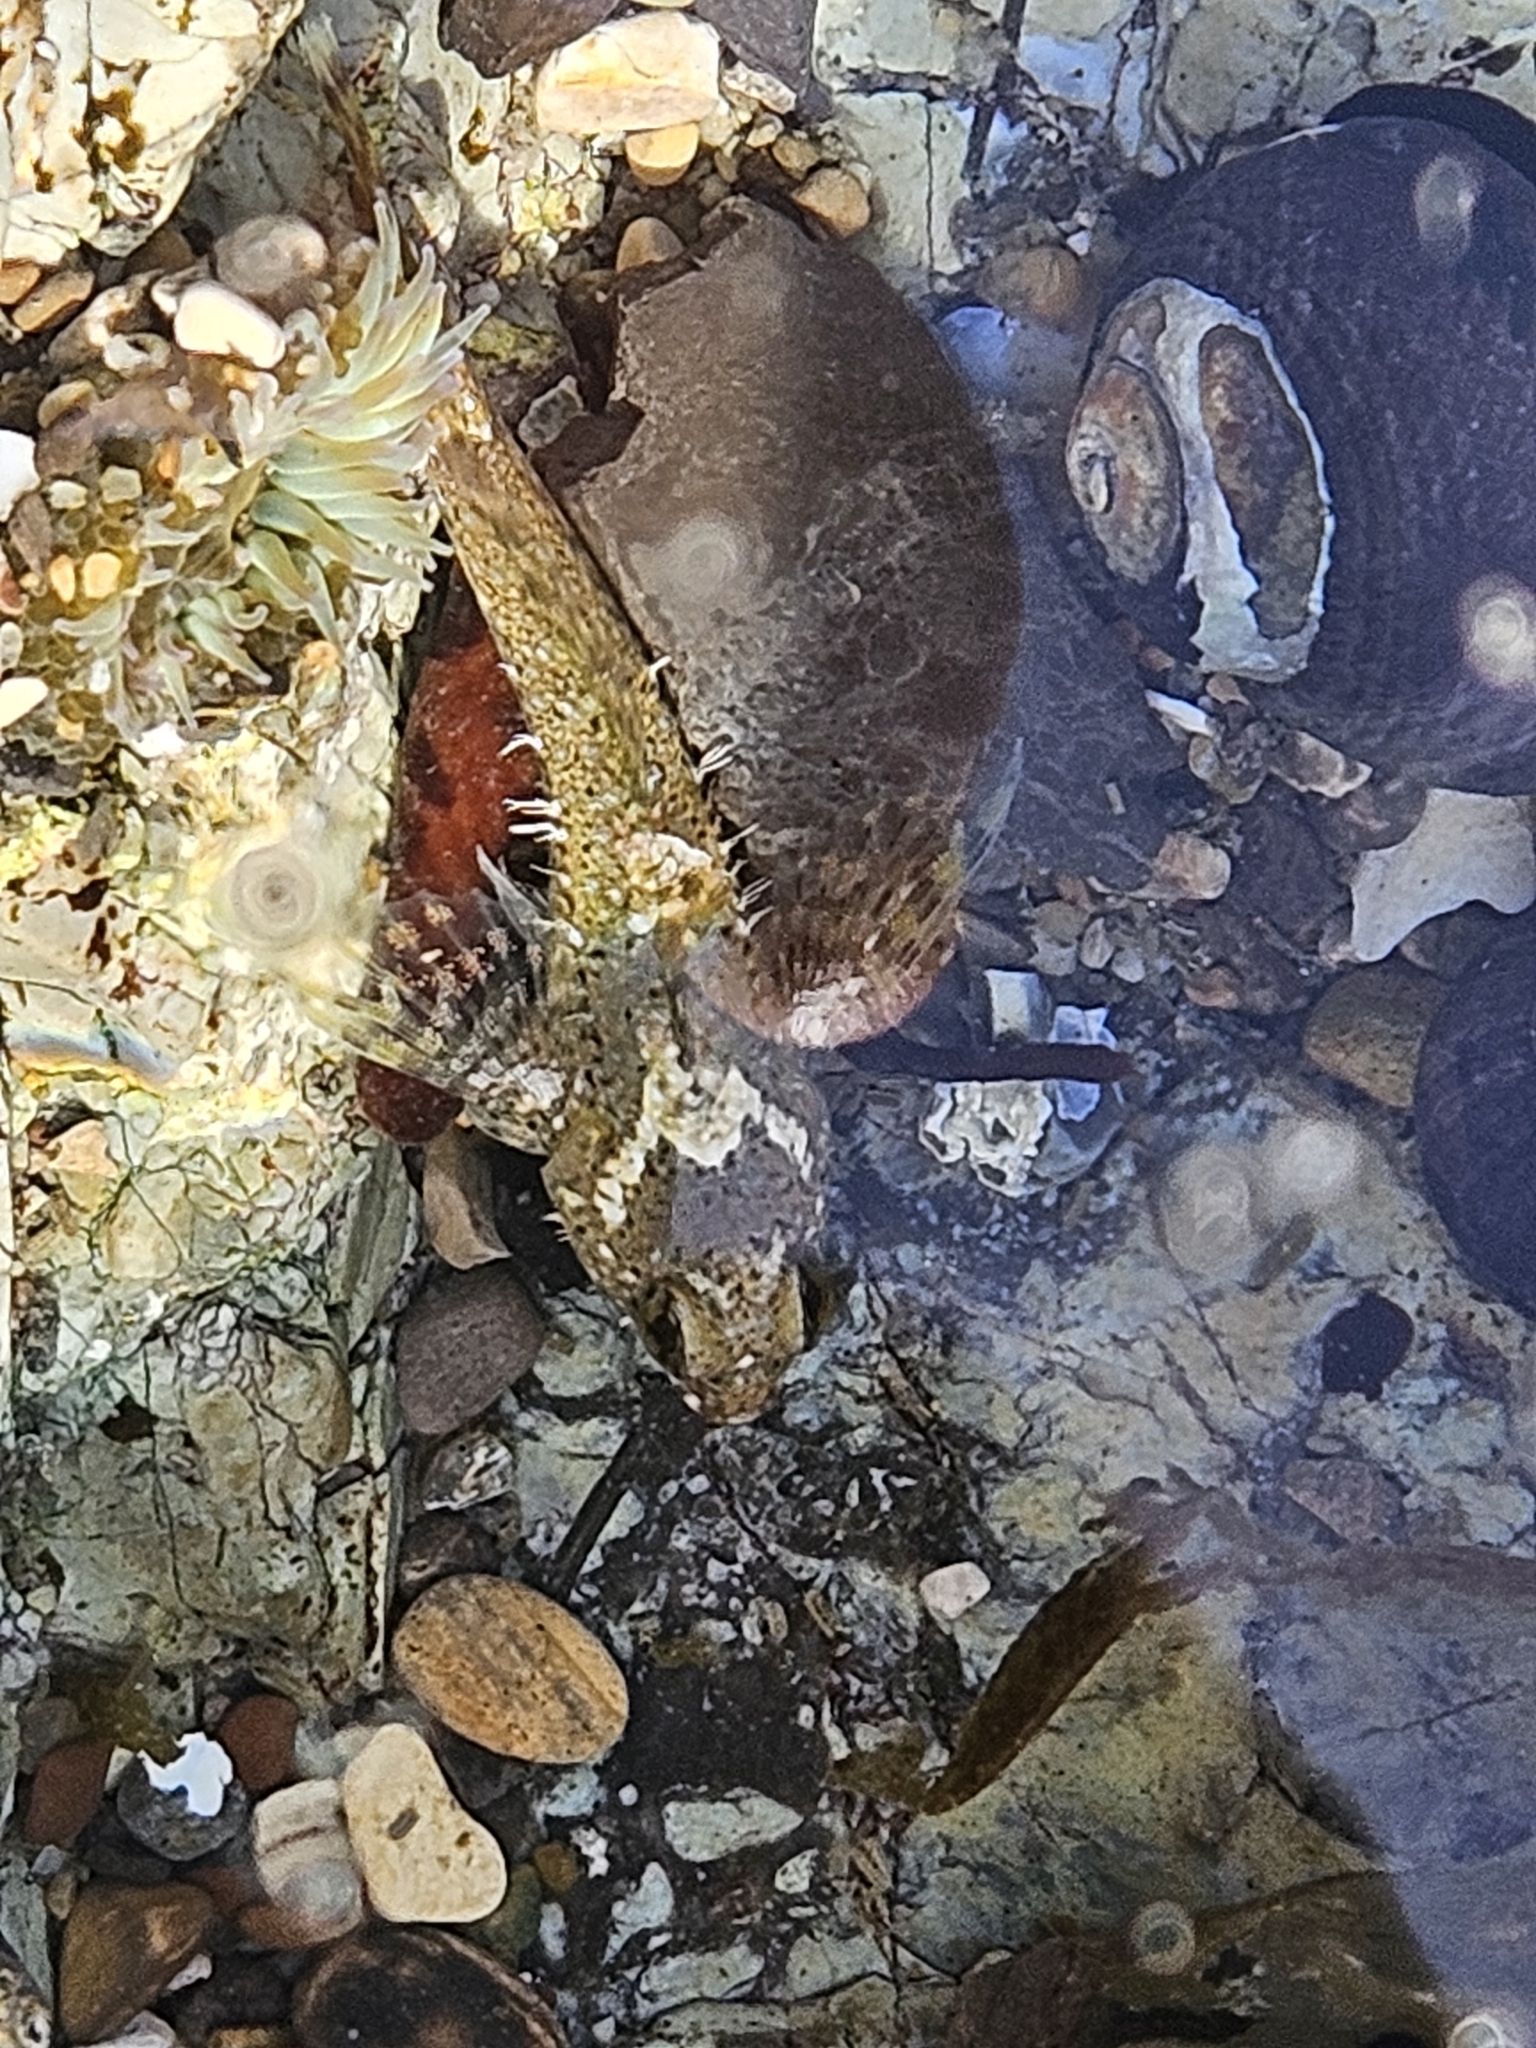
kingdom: Animalia
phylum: Chordata
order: Scorpaeniformes
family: Cottidae
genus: Clinocottus
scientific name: Clinocottus analis
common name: Woolly sculpin
